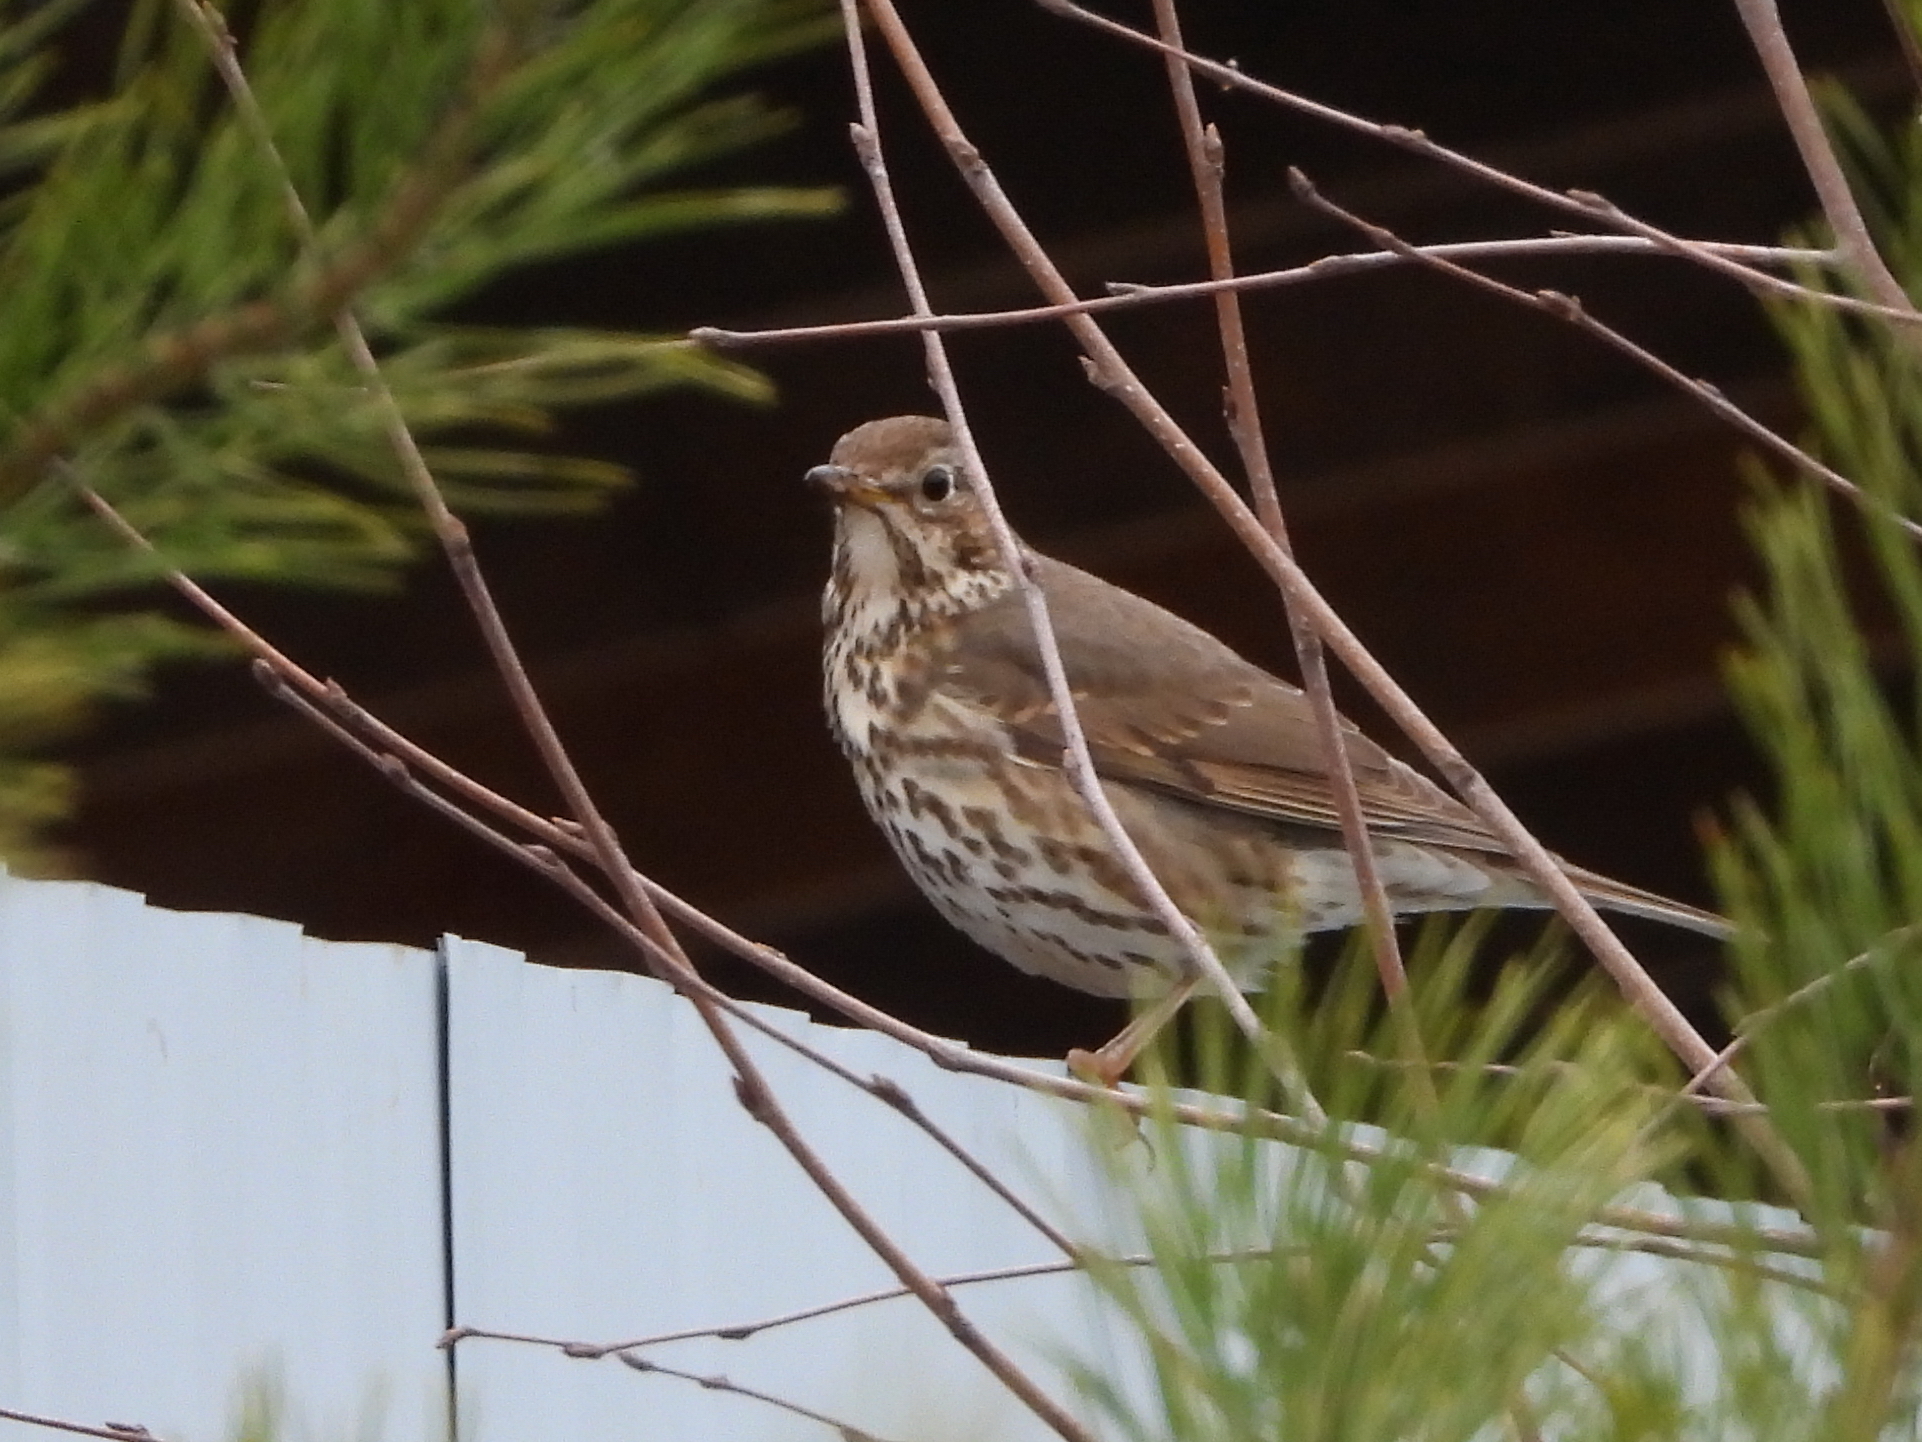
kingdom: Animalia
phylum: Chordata
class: Aves
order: Passeriformes
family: Turdidae
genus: Turdus
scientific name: Turdus philomelos
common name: Song thrush
